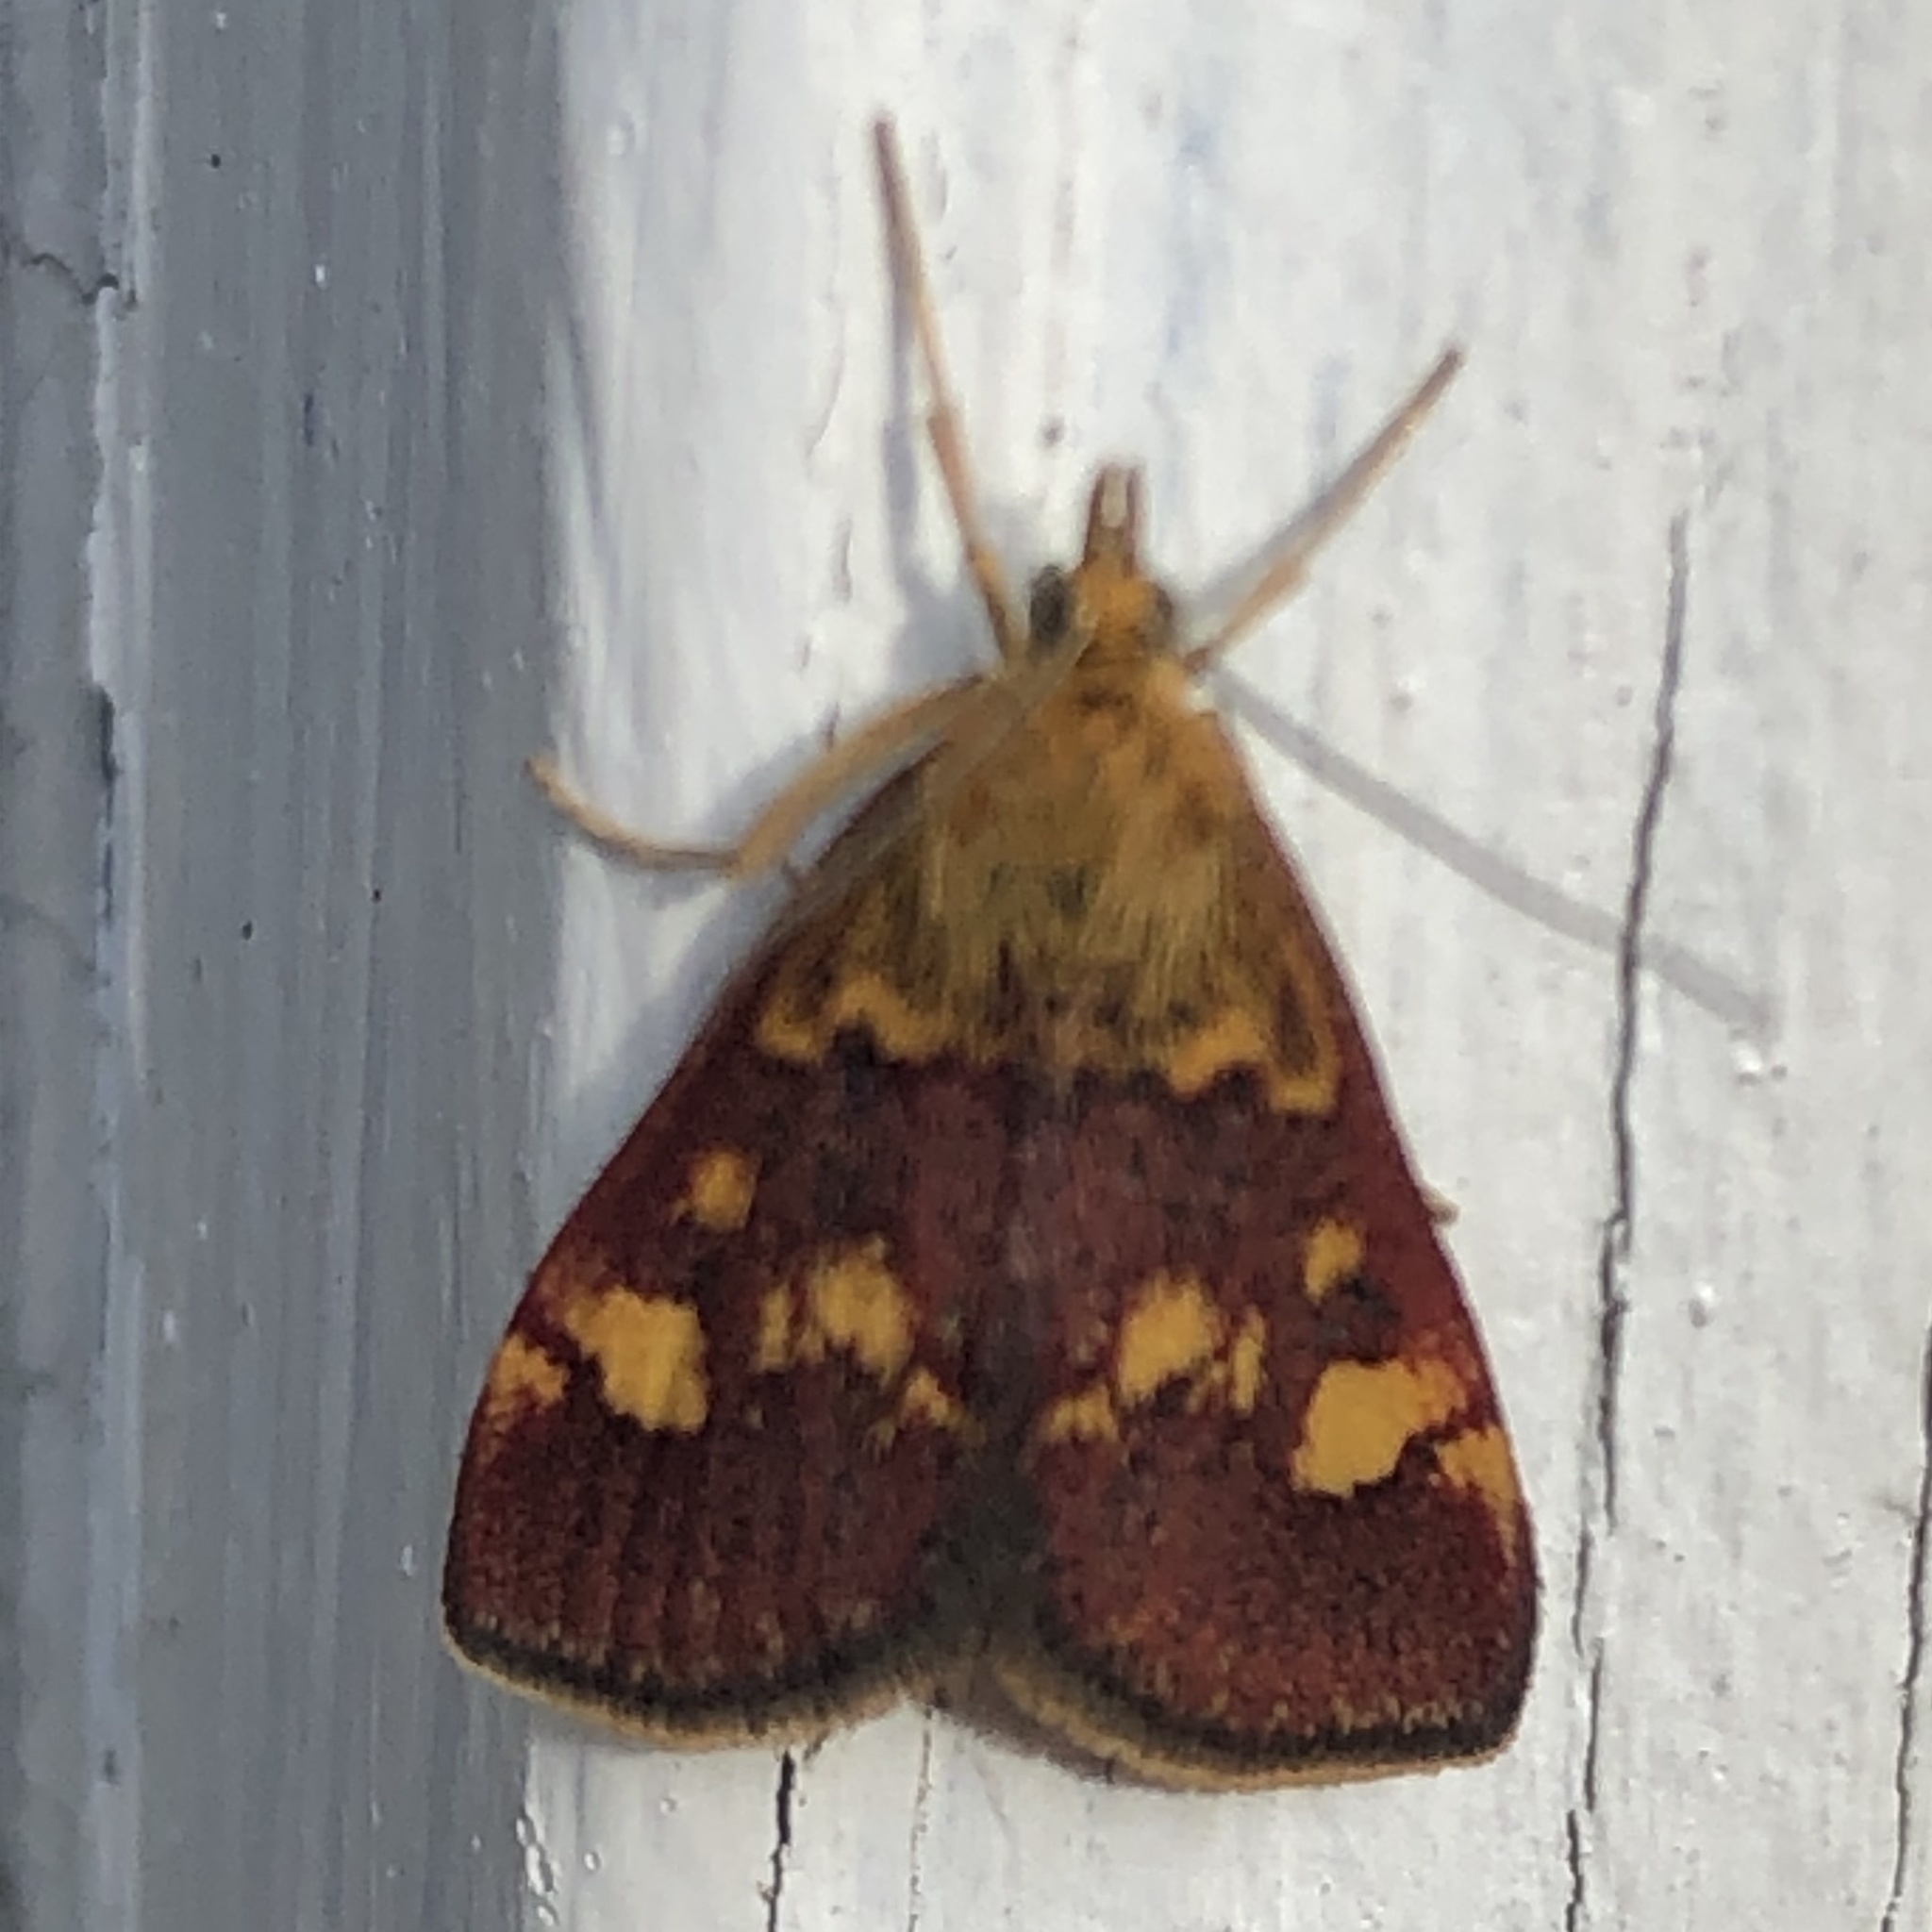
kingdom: Animalia
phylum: Arthropoda
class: Insecta
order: Lepidoptera
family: Crambidae
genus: Pyrausta
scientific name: Pyrausta aurata
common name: Small purple & gold
